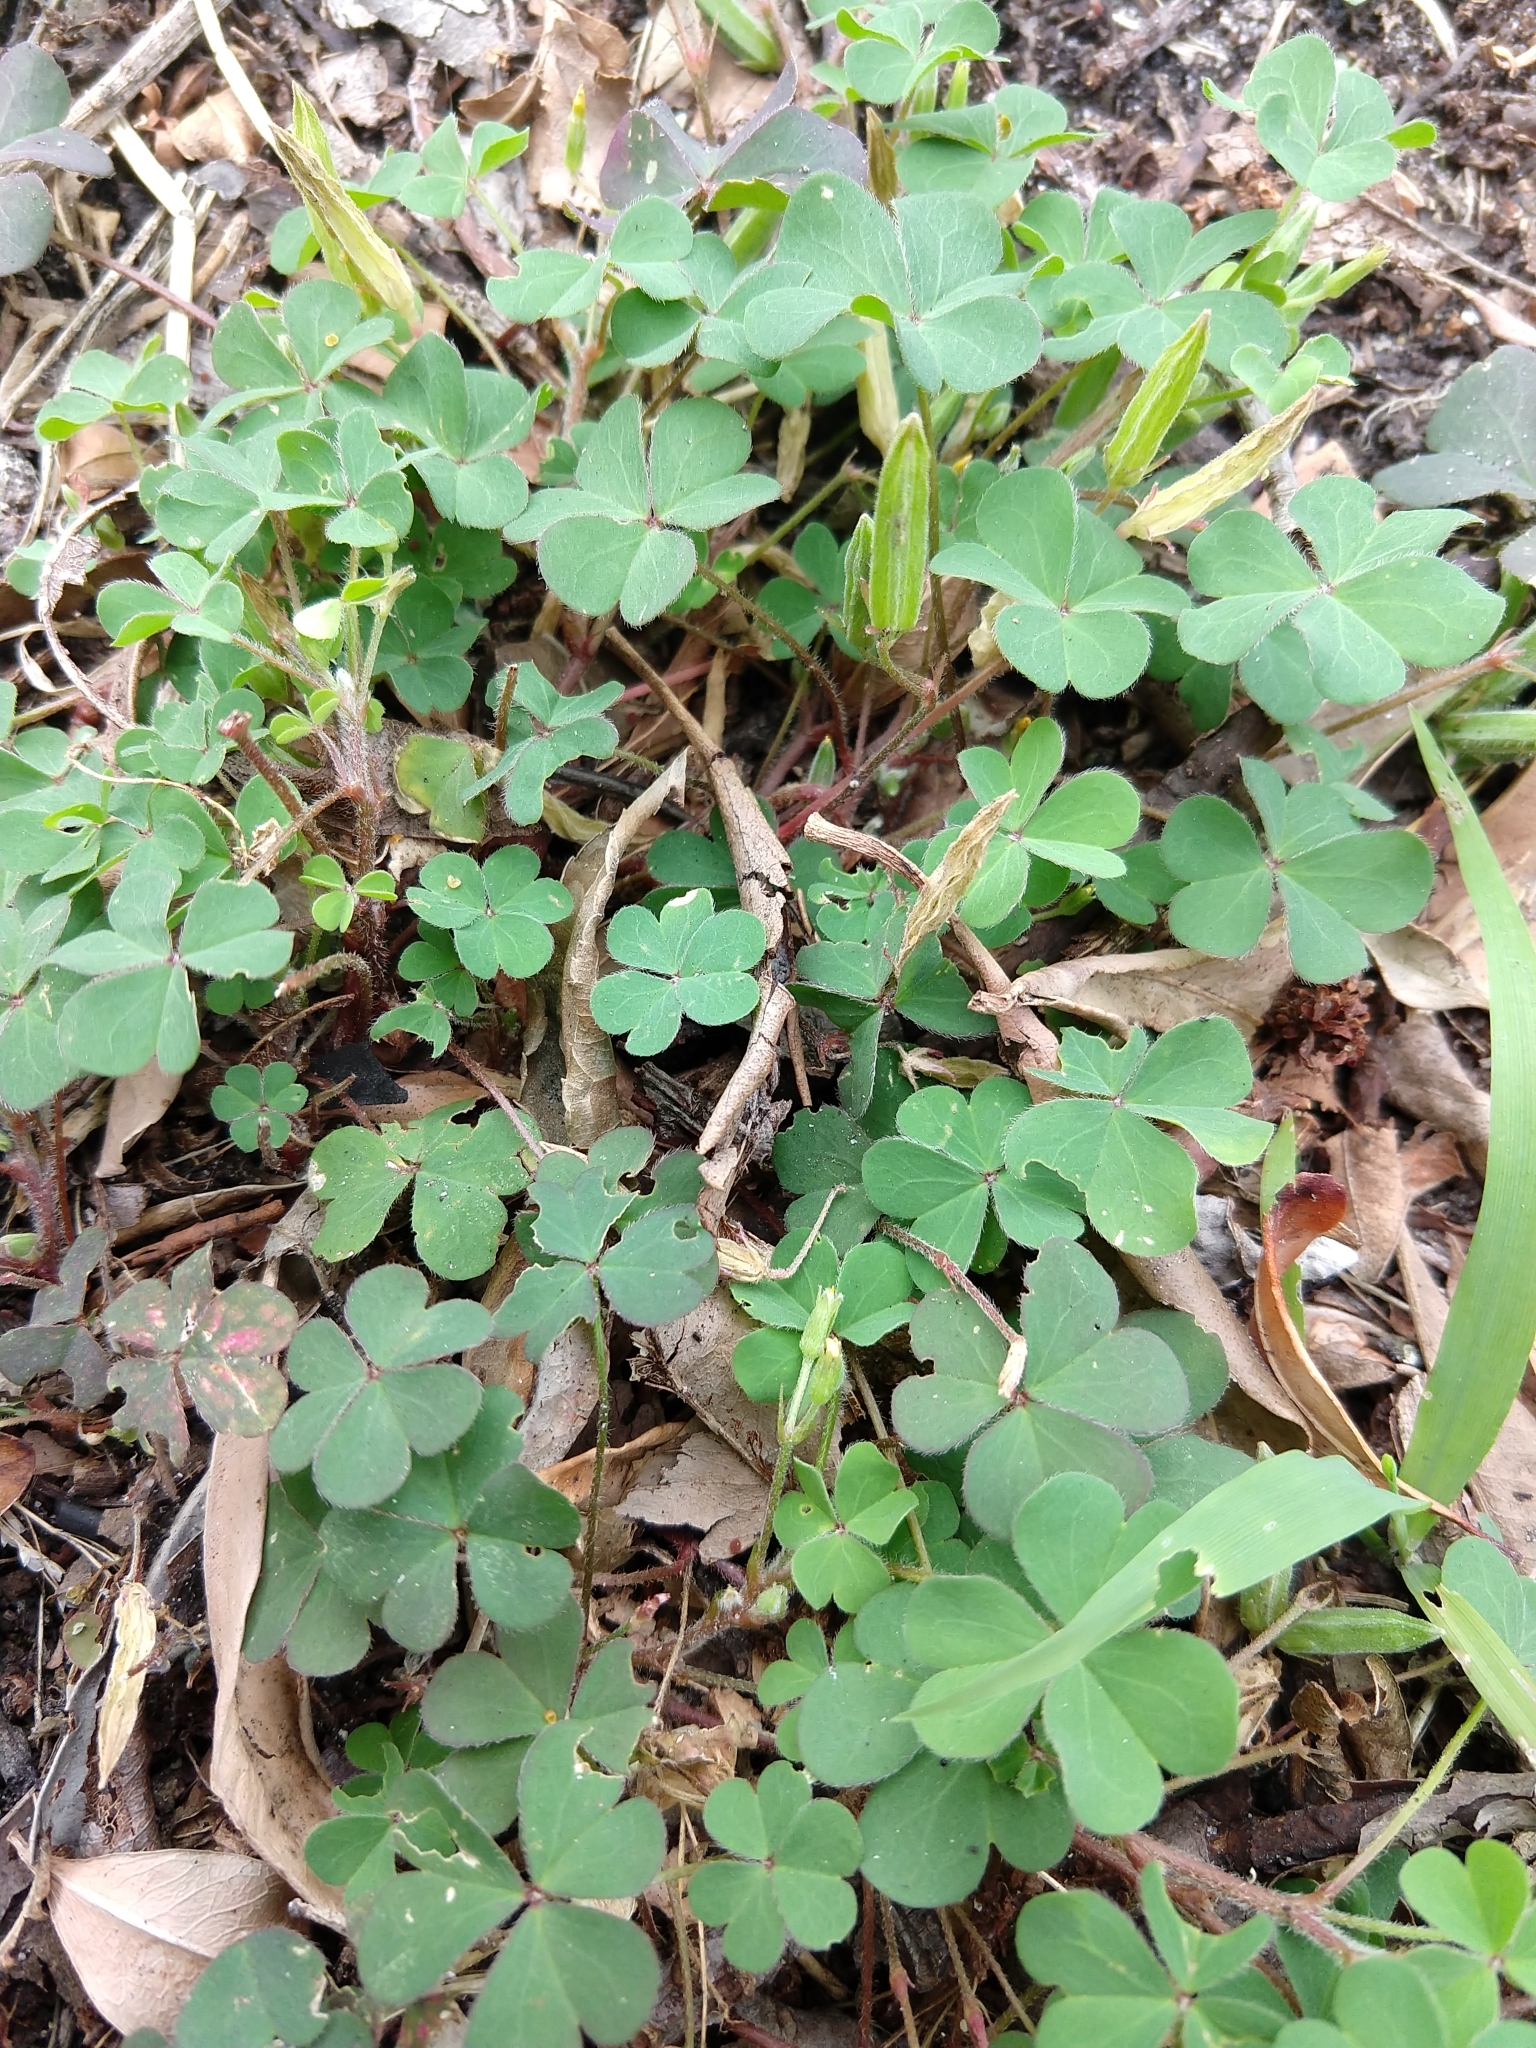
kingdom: Plantae
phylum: Tracheophyta
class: Magnoliopsida
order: Oxalidales
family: Oxalidaceae
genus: Oxalis
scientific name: Oxalis corniculata
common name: Procumbent yellow-sorrel
